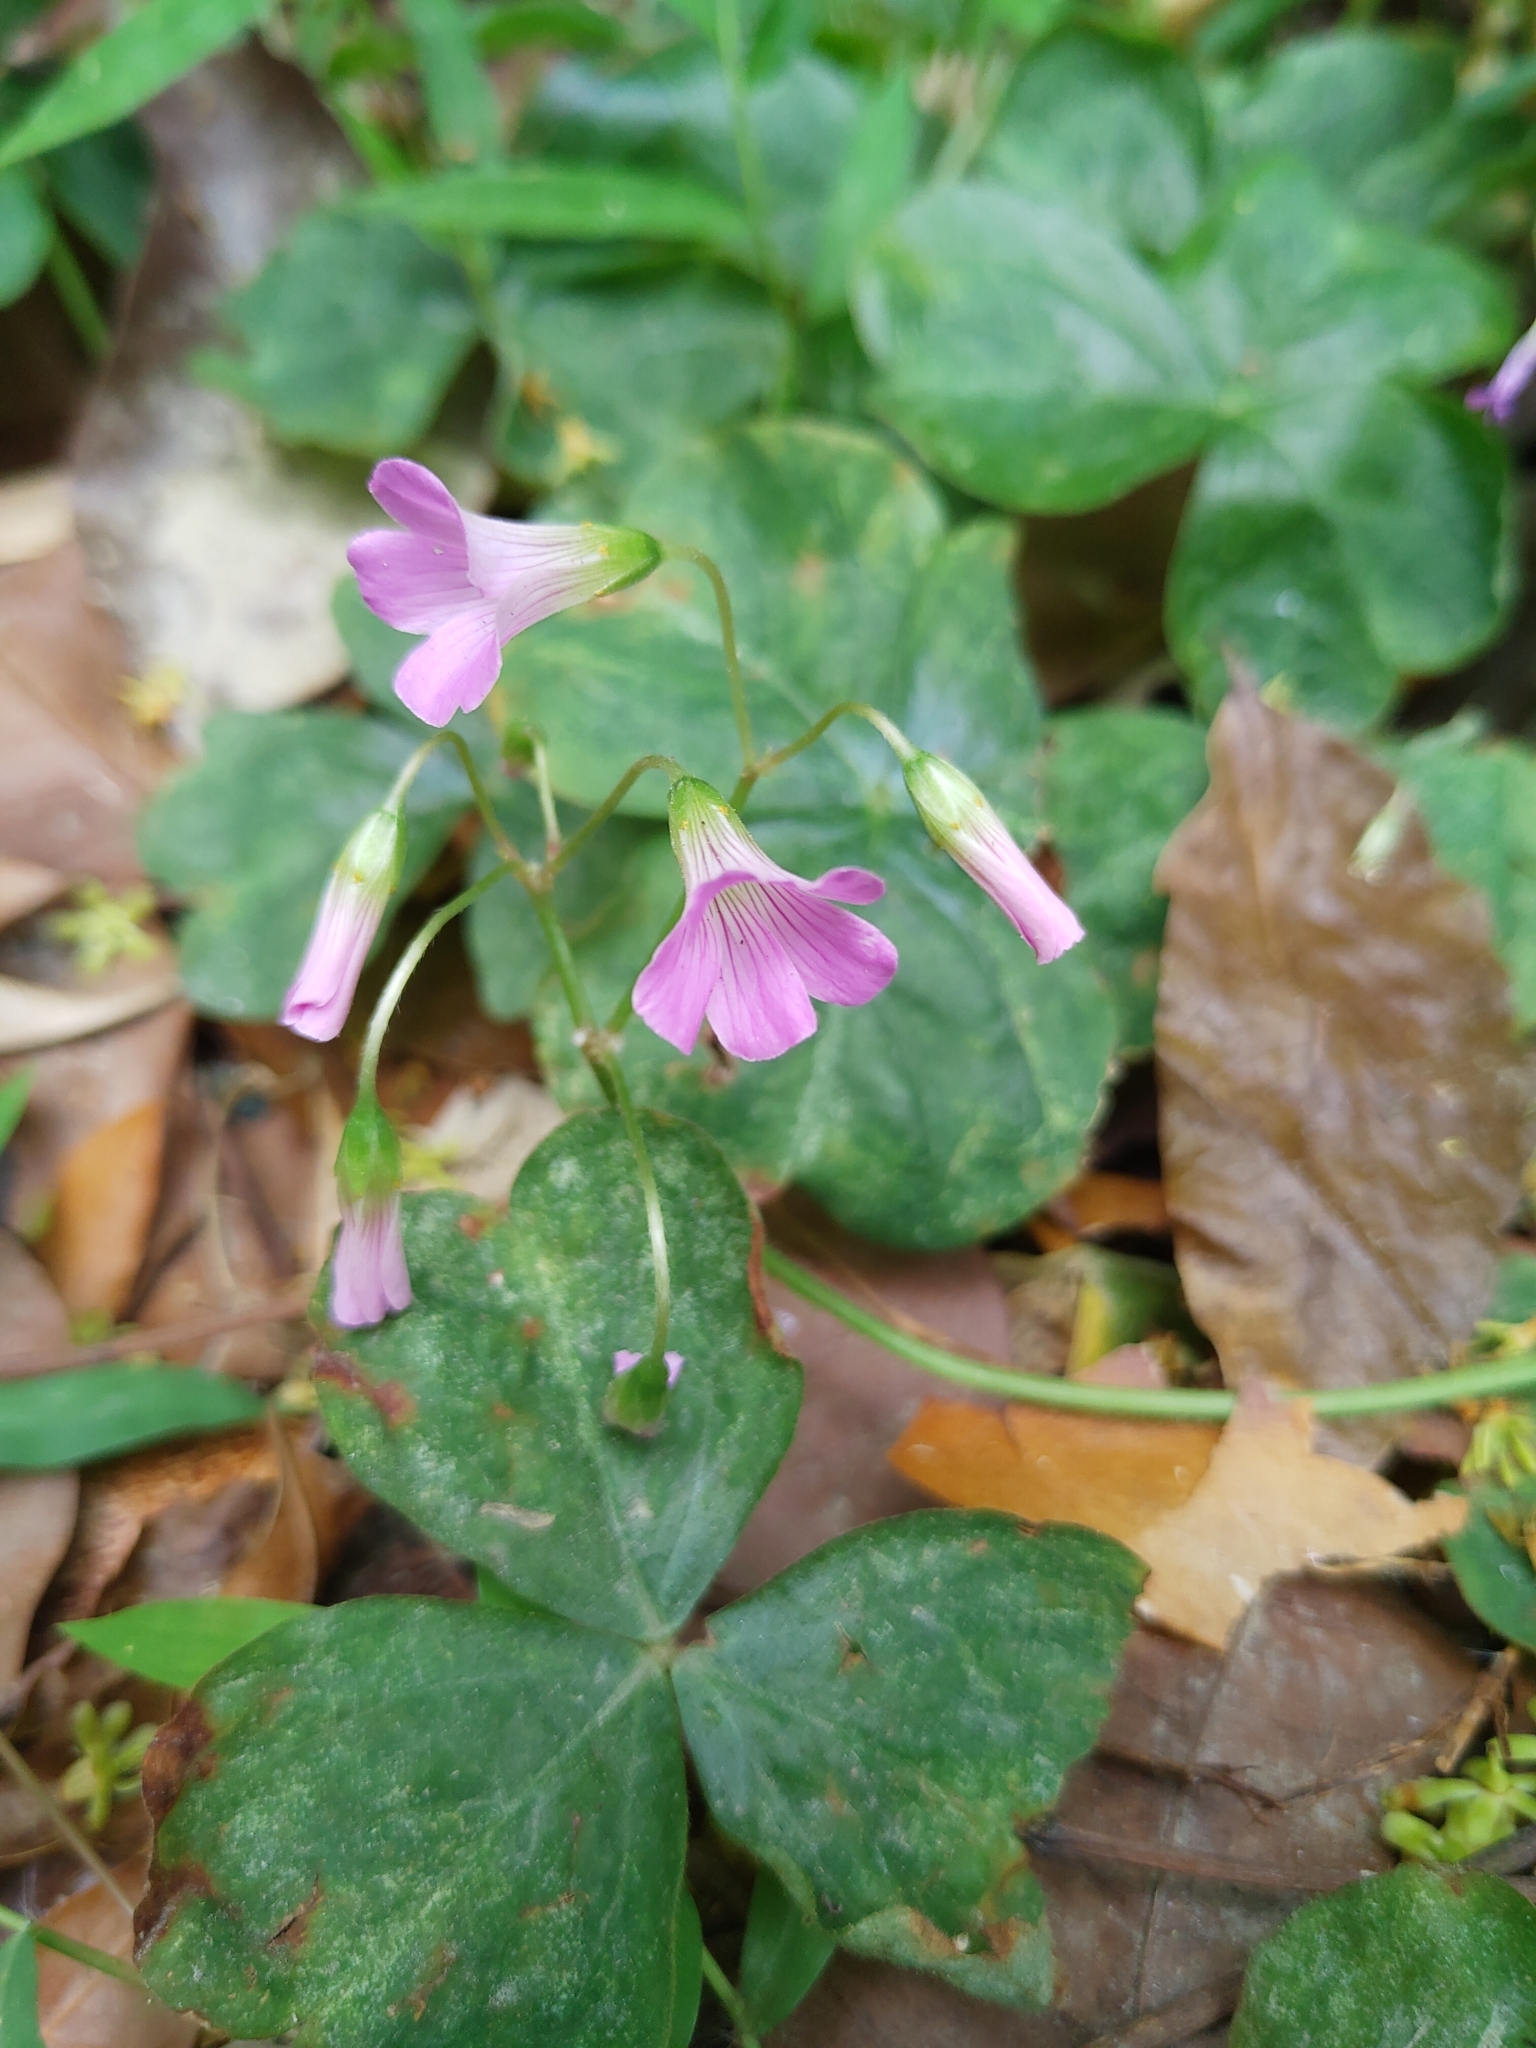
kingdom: Plantae
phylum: Tracheophyta
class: Magnoliopsida
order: Oxalidales
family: Oxalidaceae
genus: Oxalis
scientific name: Oxalis debilis
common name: Large-flowered pink-sorrel
